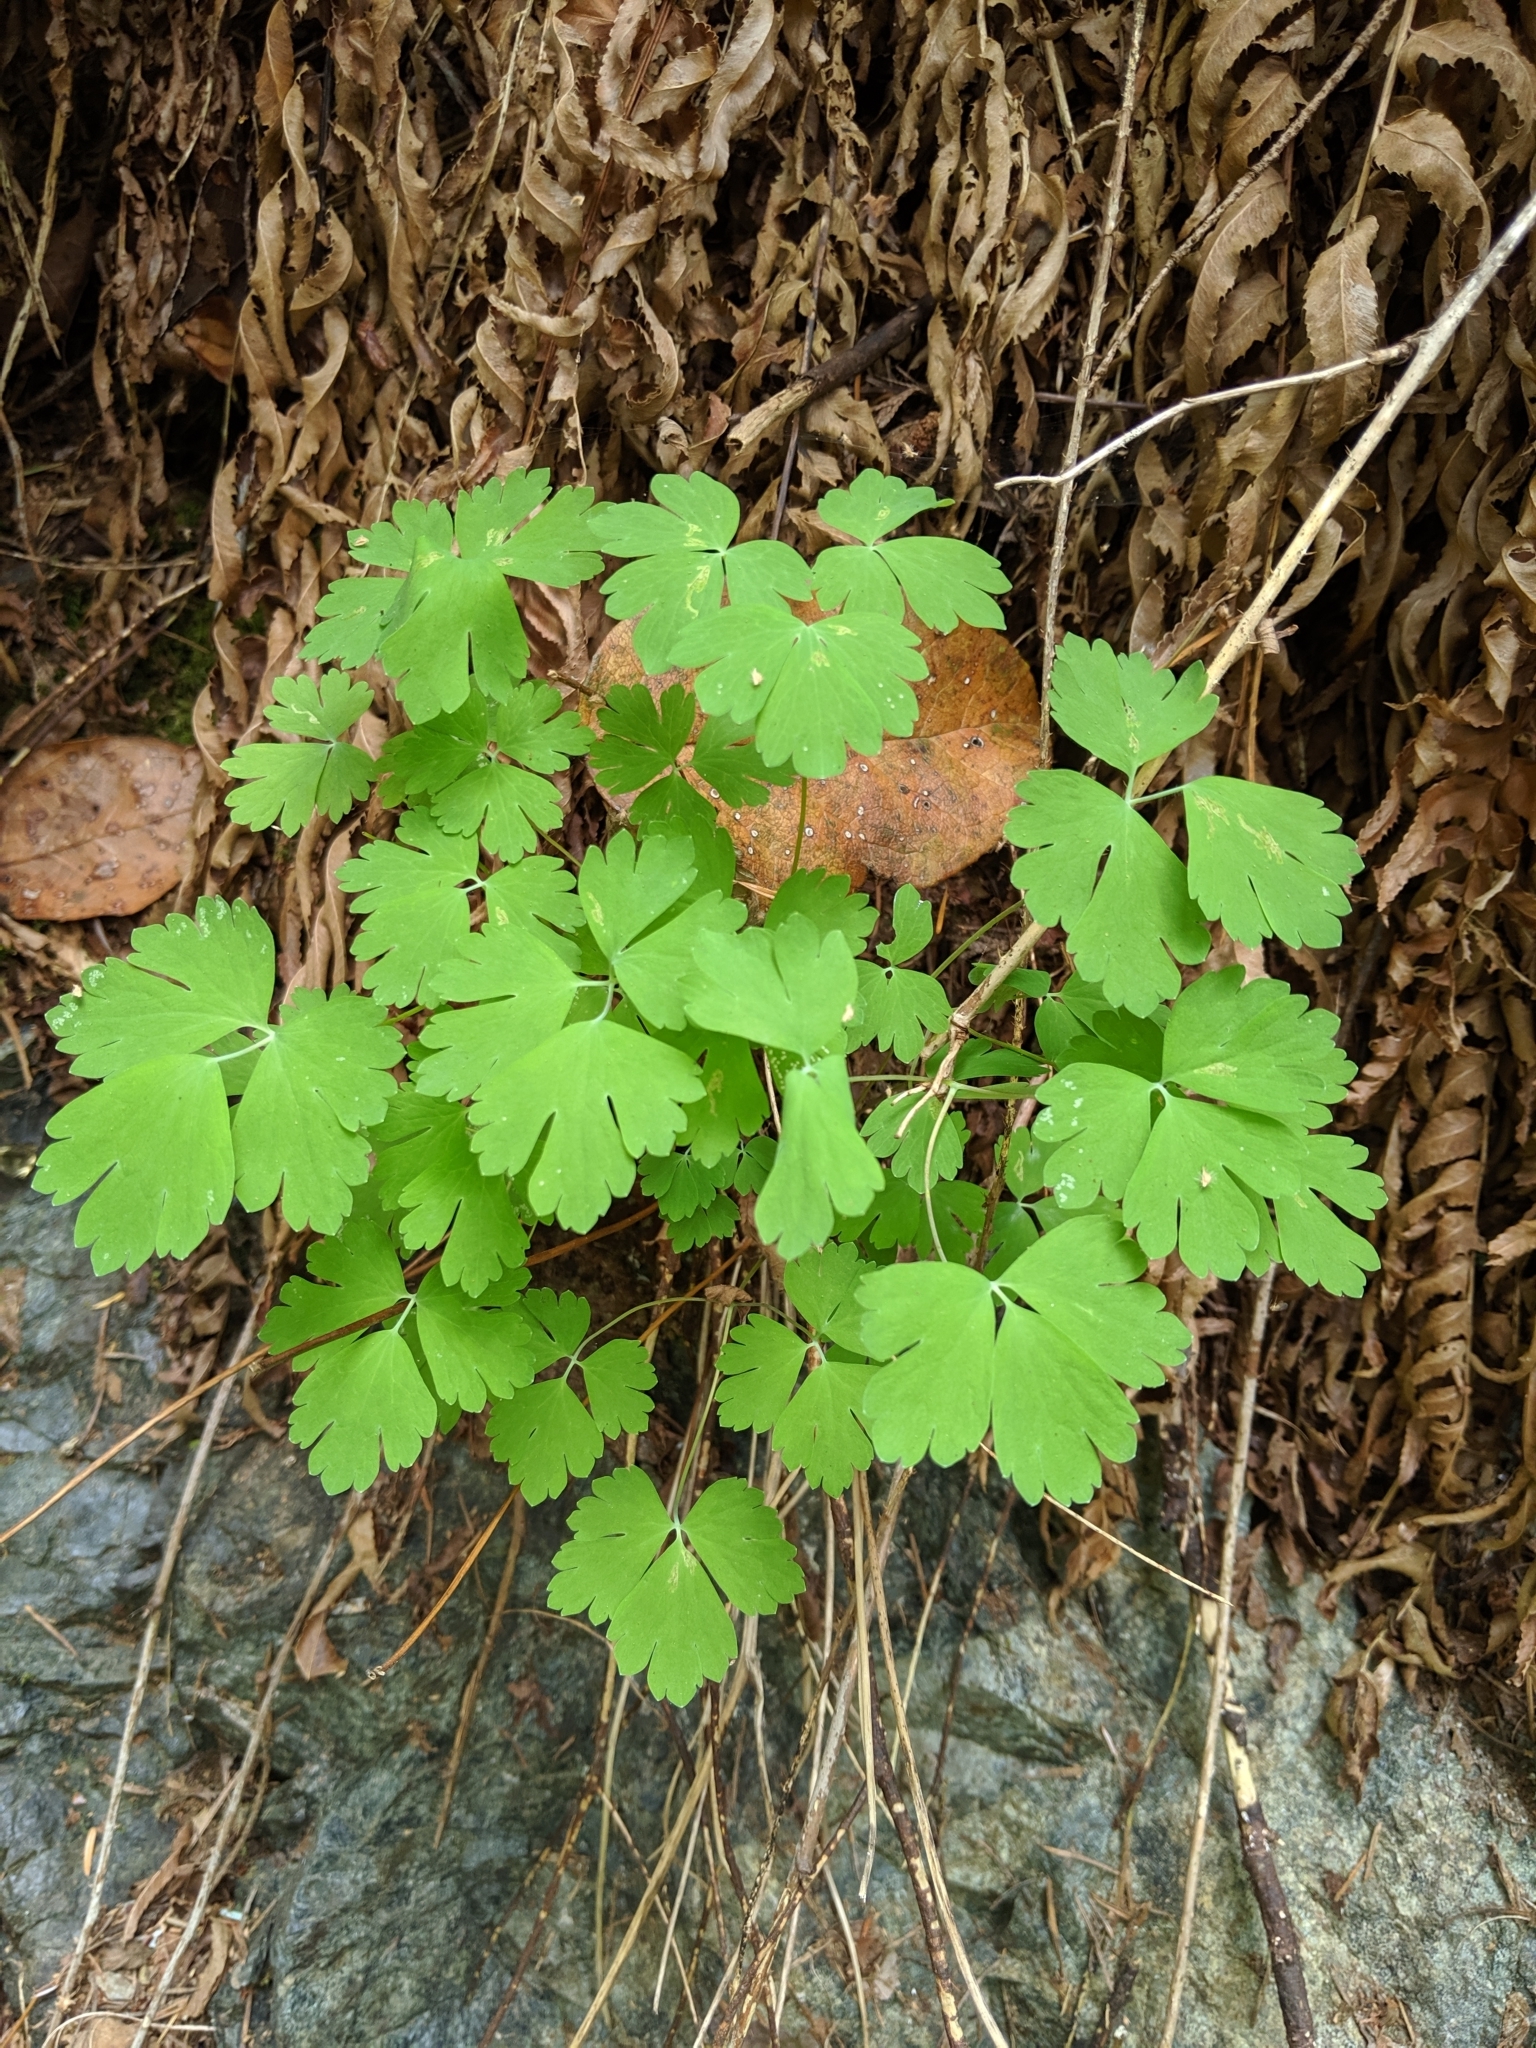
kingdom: Plantae
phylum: Tracheophyta
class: Magnoliopsida
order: Ranunculales
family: Ranunculaceae
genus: Aquilegia
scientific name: Aquilegia formosa
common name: Sitka columbine
